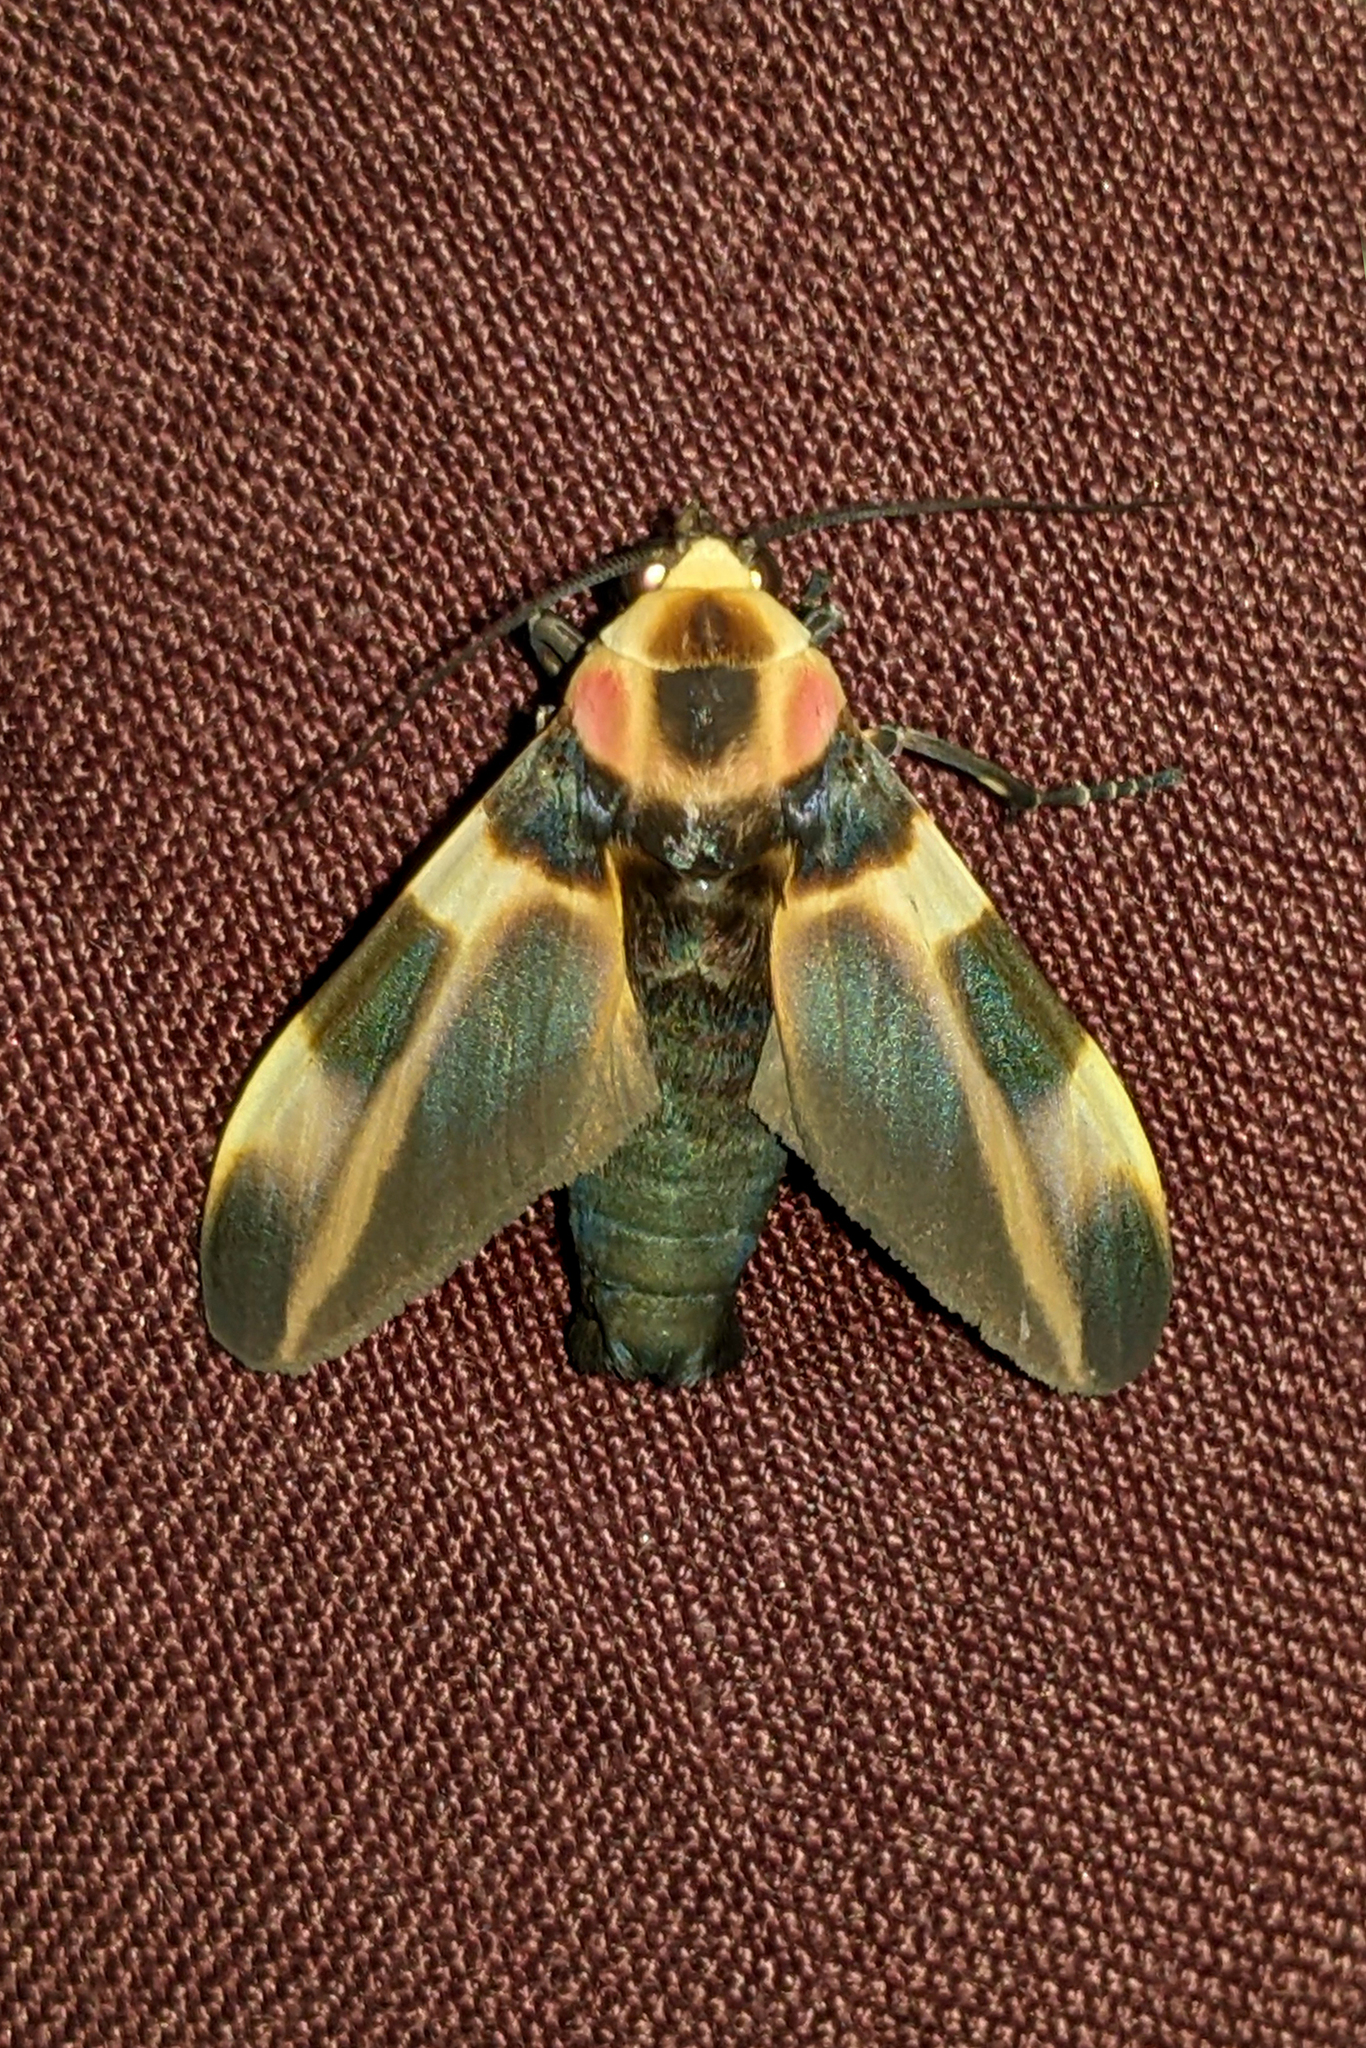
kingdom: Animalia
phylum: Arthropoda
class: Insecta
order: Lepidoptera
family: Erebidae
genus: Cratoplastis
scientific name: Cratoplastis rectiradia
